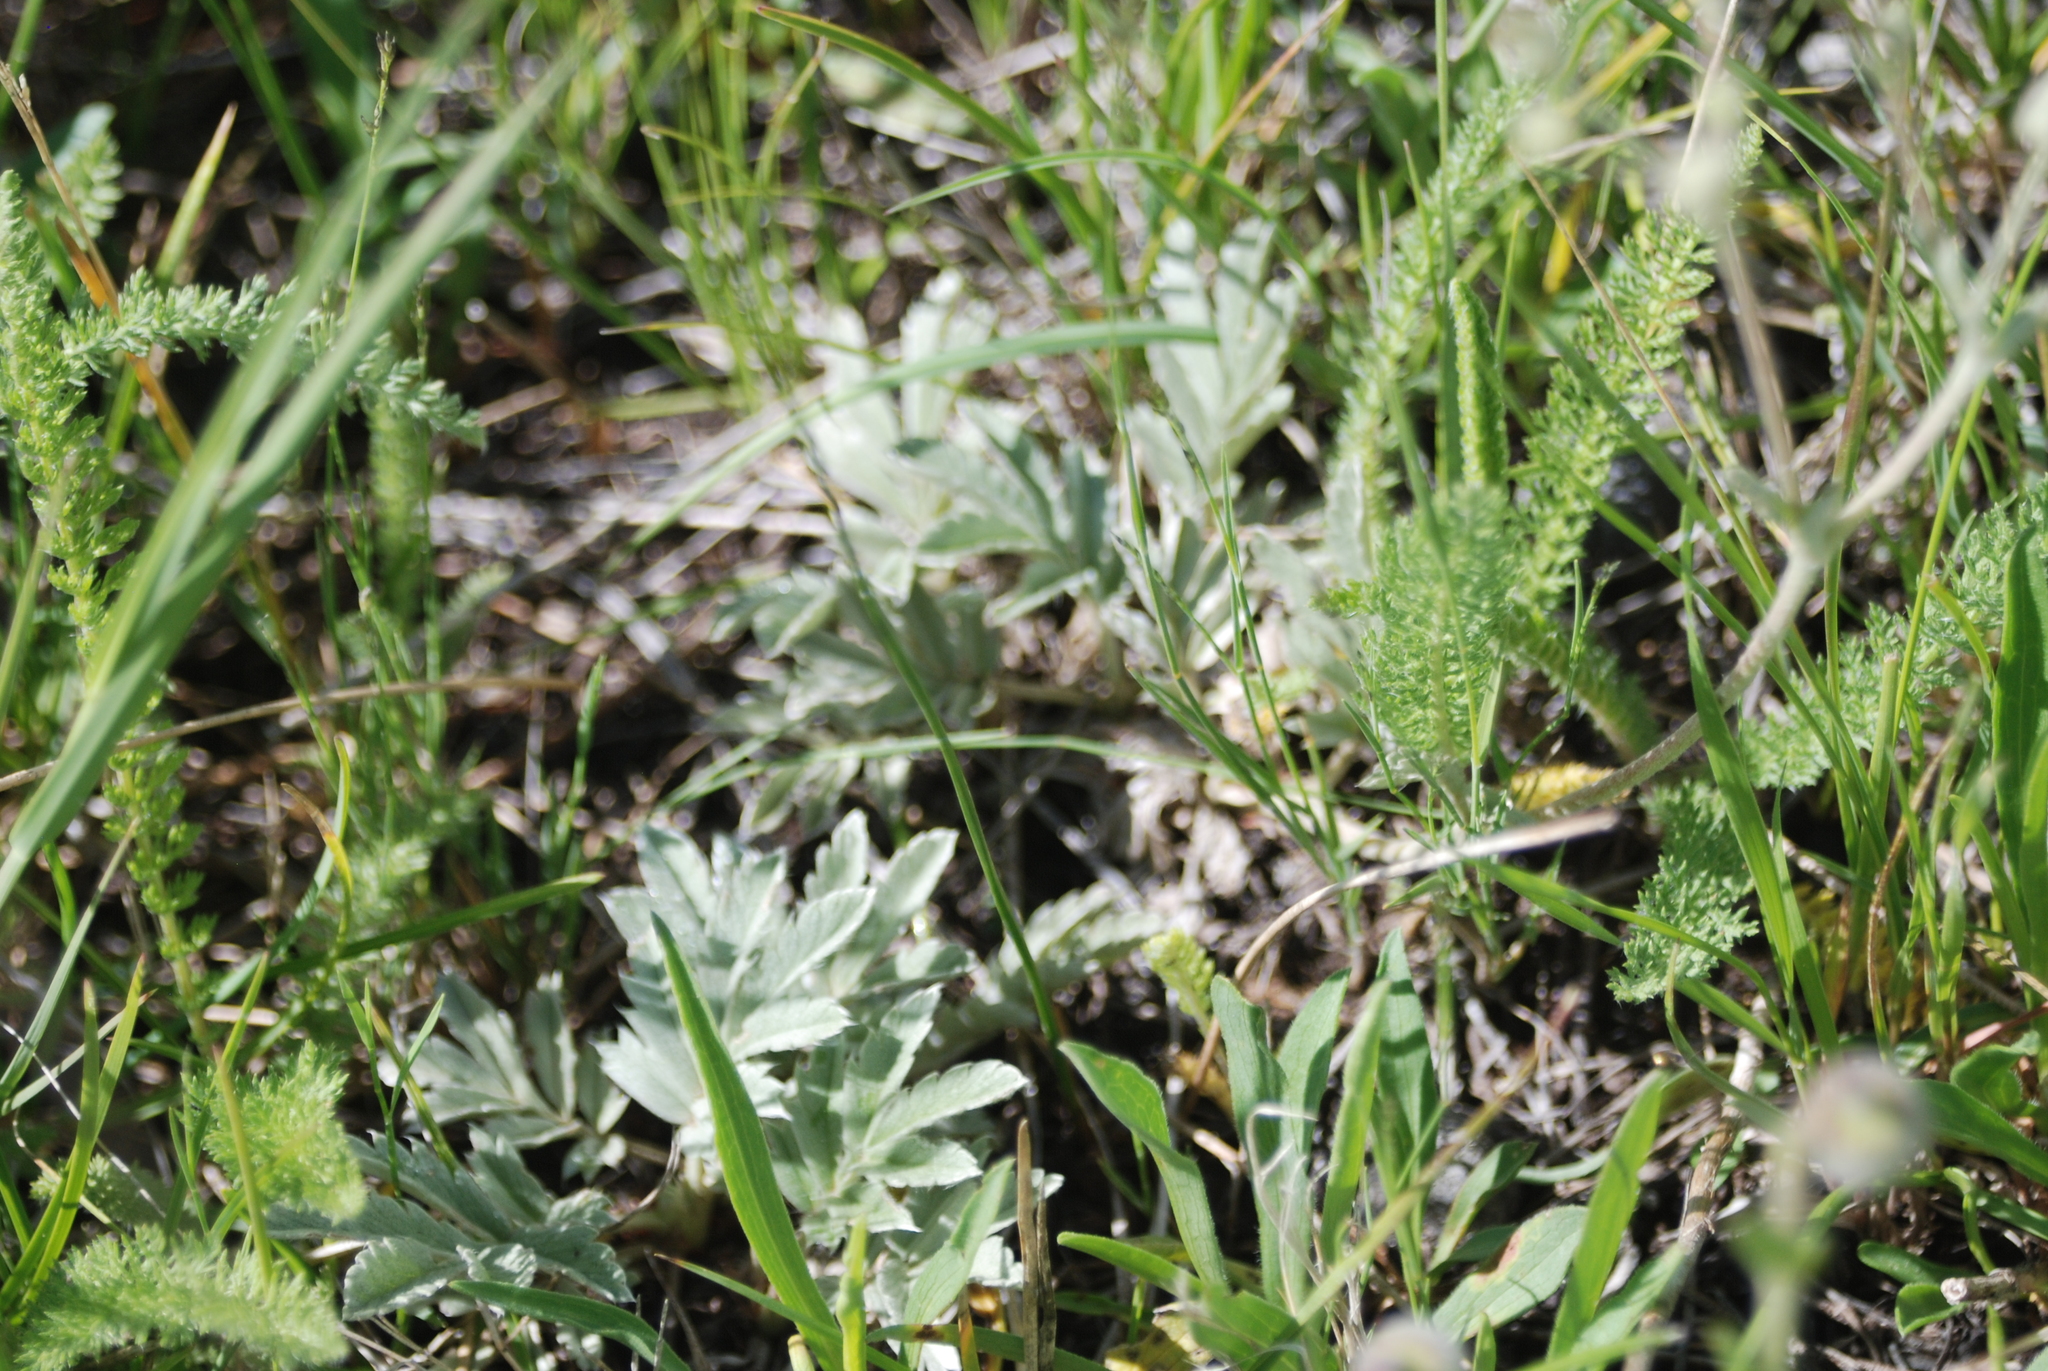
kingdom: Plantae
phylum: Tracheophyta
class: Magnoliopsida
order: Asterales
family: Asteraceae
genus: Achillea
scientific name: Achillea millefolium
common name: Yarrow
